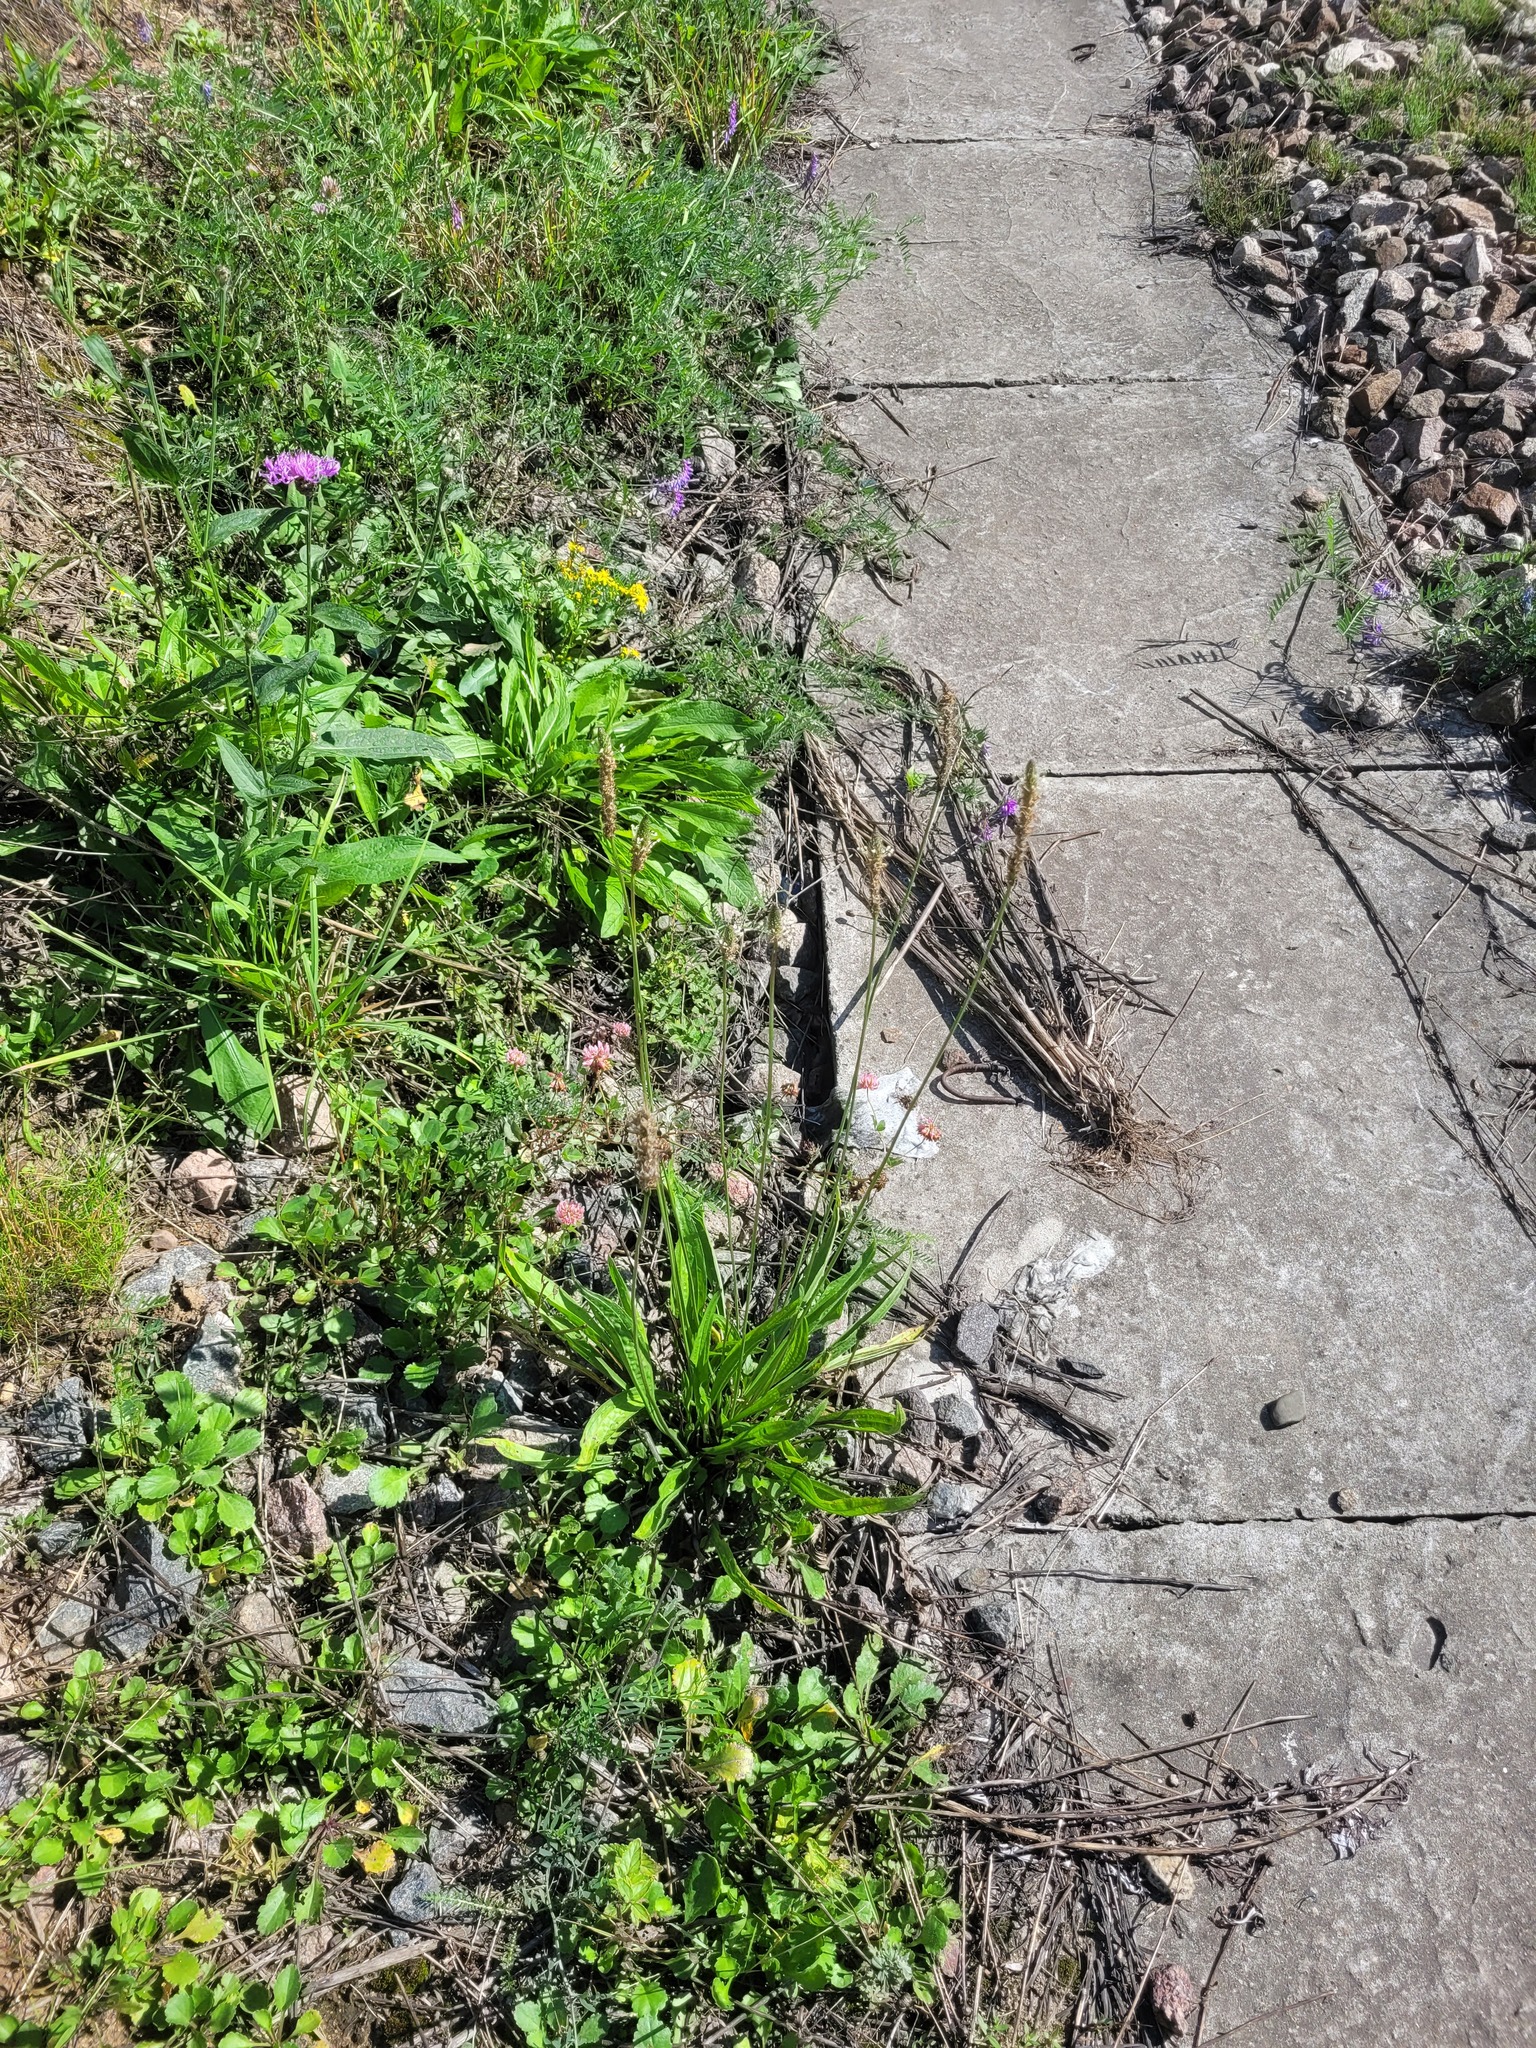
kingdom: Plantae
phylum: Tracheophyta
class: Magnoliopsida
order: Lamiales
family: Plantaginaceae
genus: Plantago
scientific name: Plantago lanceolata
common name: Ribwort plantain
